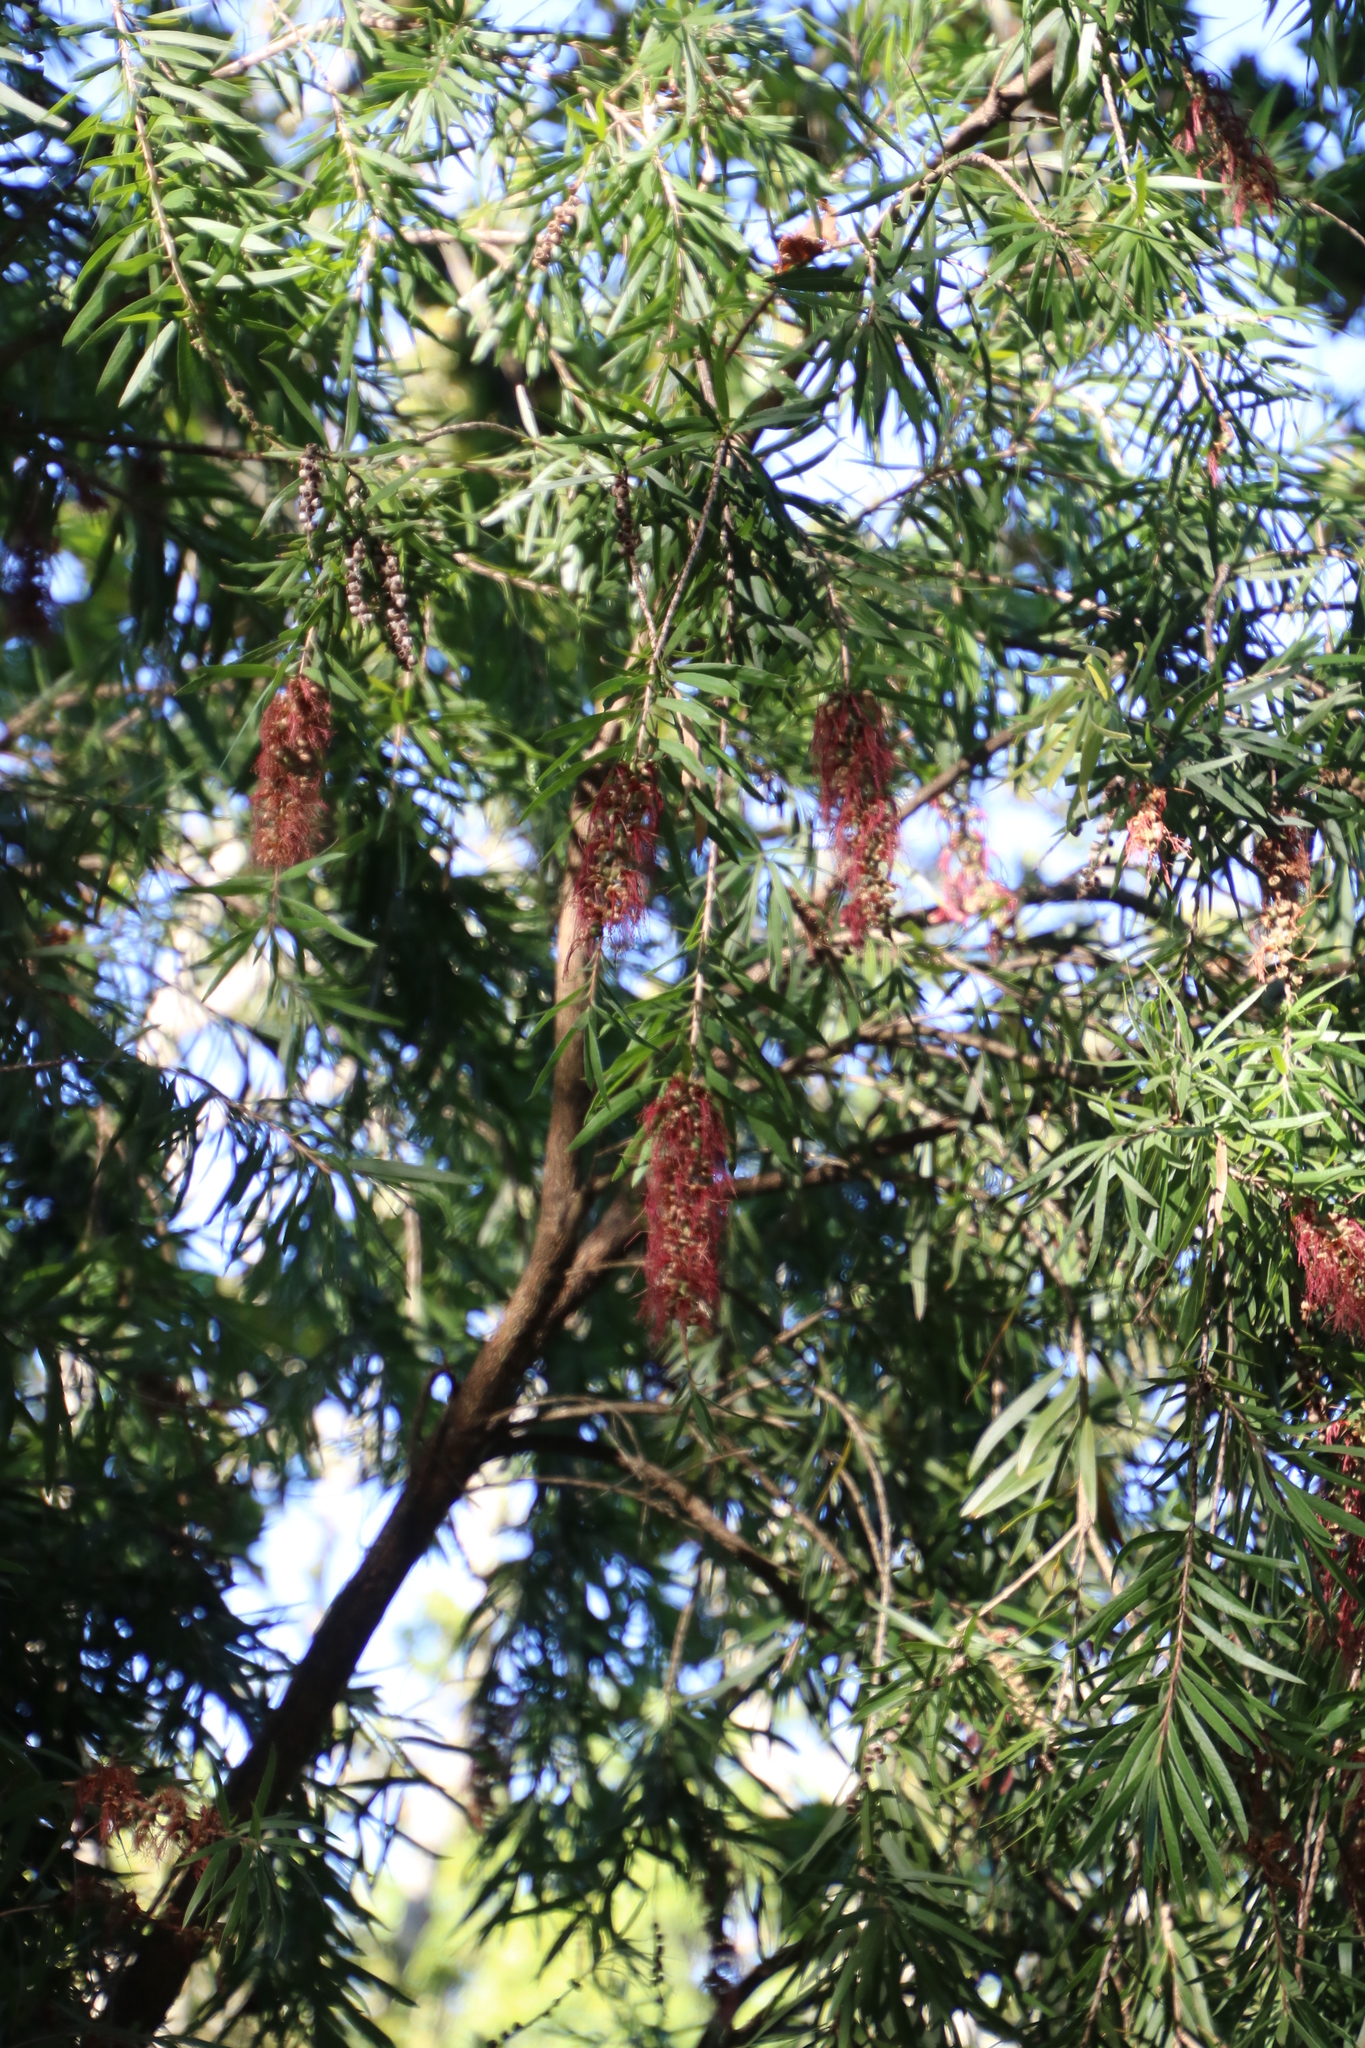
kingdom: Plantae
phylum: Tracheophyta
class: Magnoliopsida
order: Myrtales
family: Myrtaceae
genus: Callistemon
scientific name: Callistemon viminalis
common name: Drooping bottlebrush
